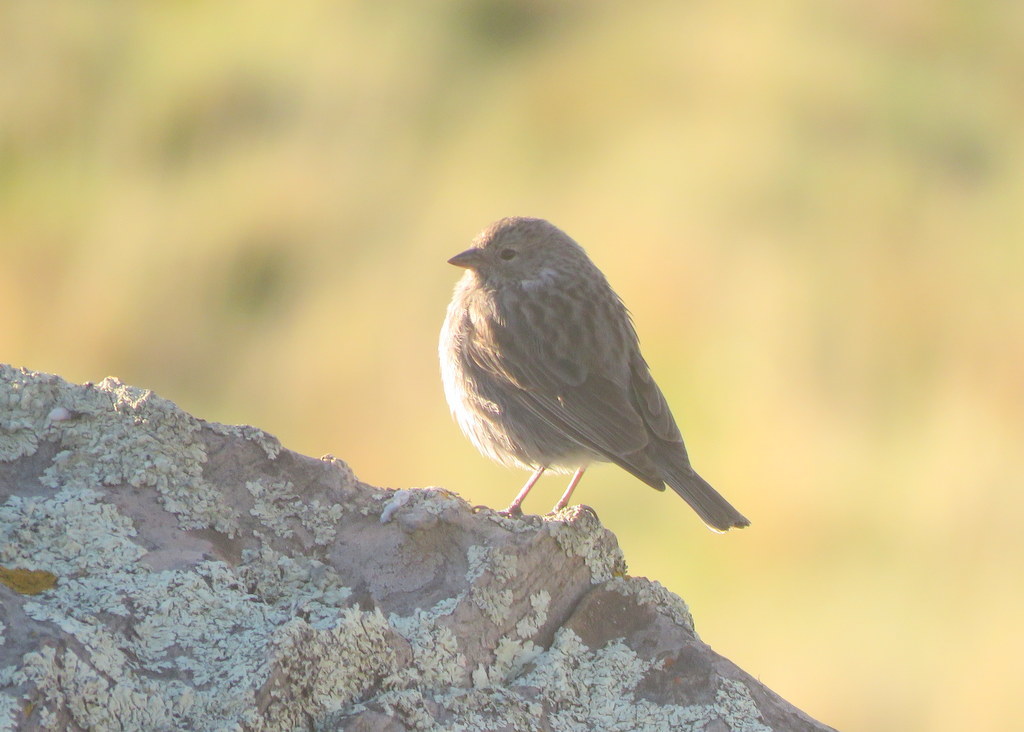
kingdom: Animalia
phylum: Chordata
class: Aves
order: Passeriformes
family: Thraupidae
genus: Geospizopsis
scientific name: Geospizopsis plebejus
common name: Ash-breasted sierra-finch
